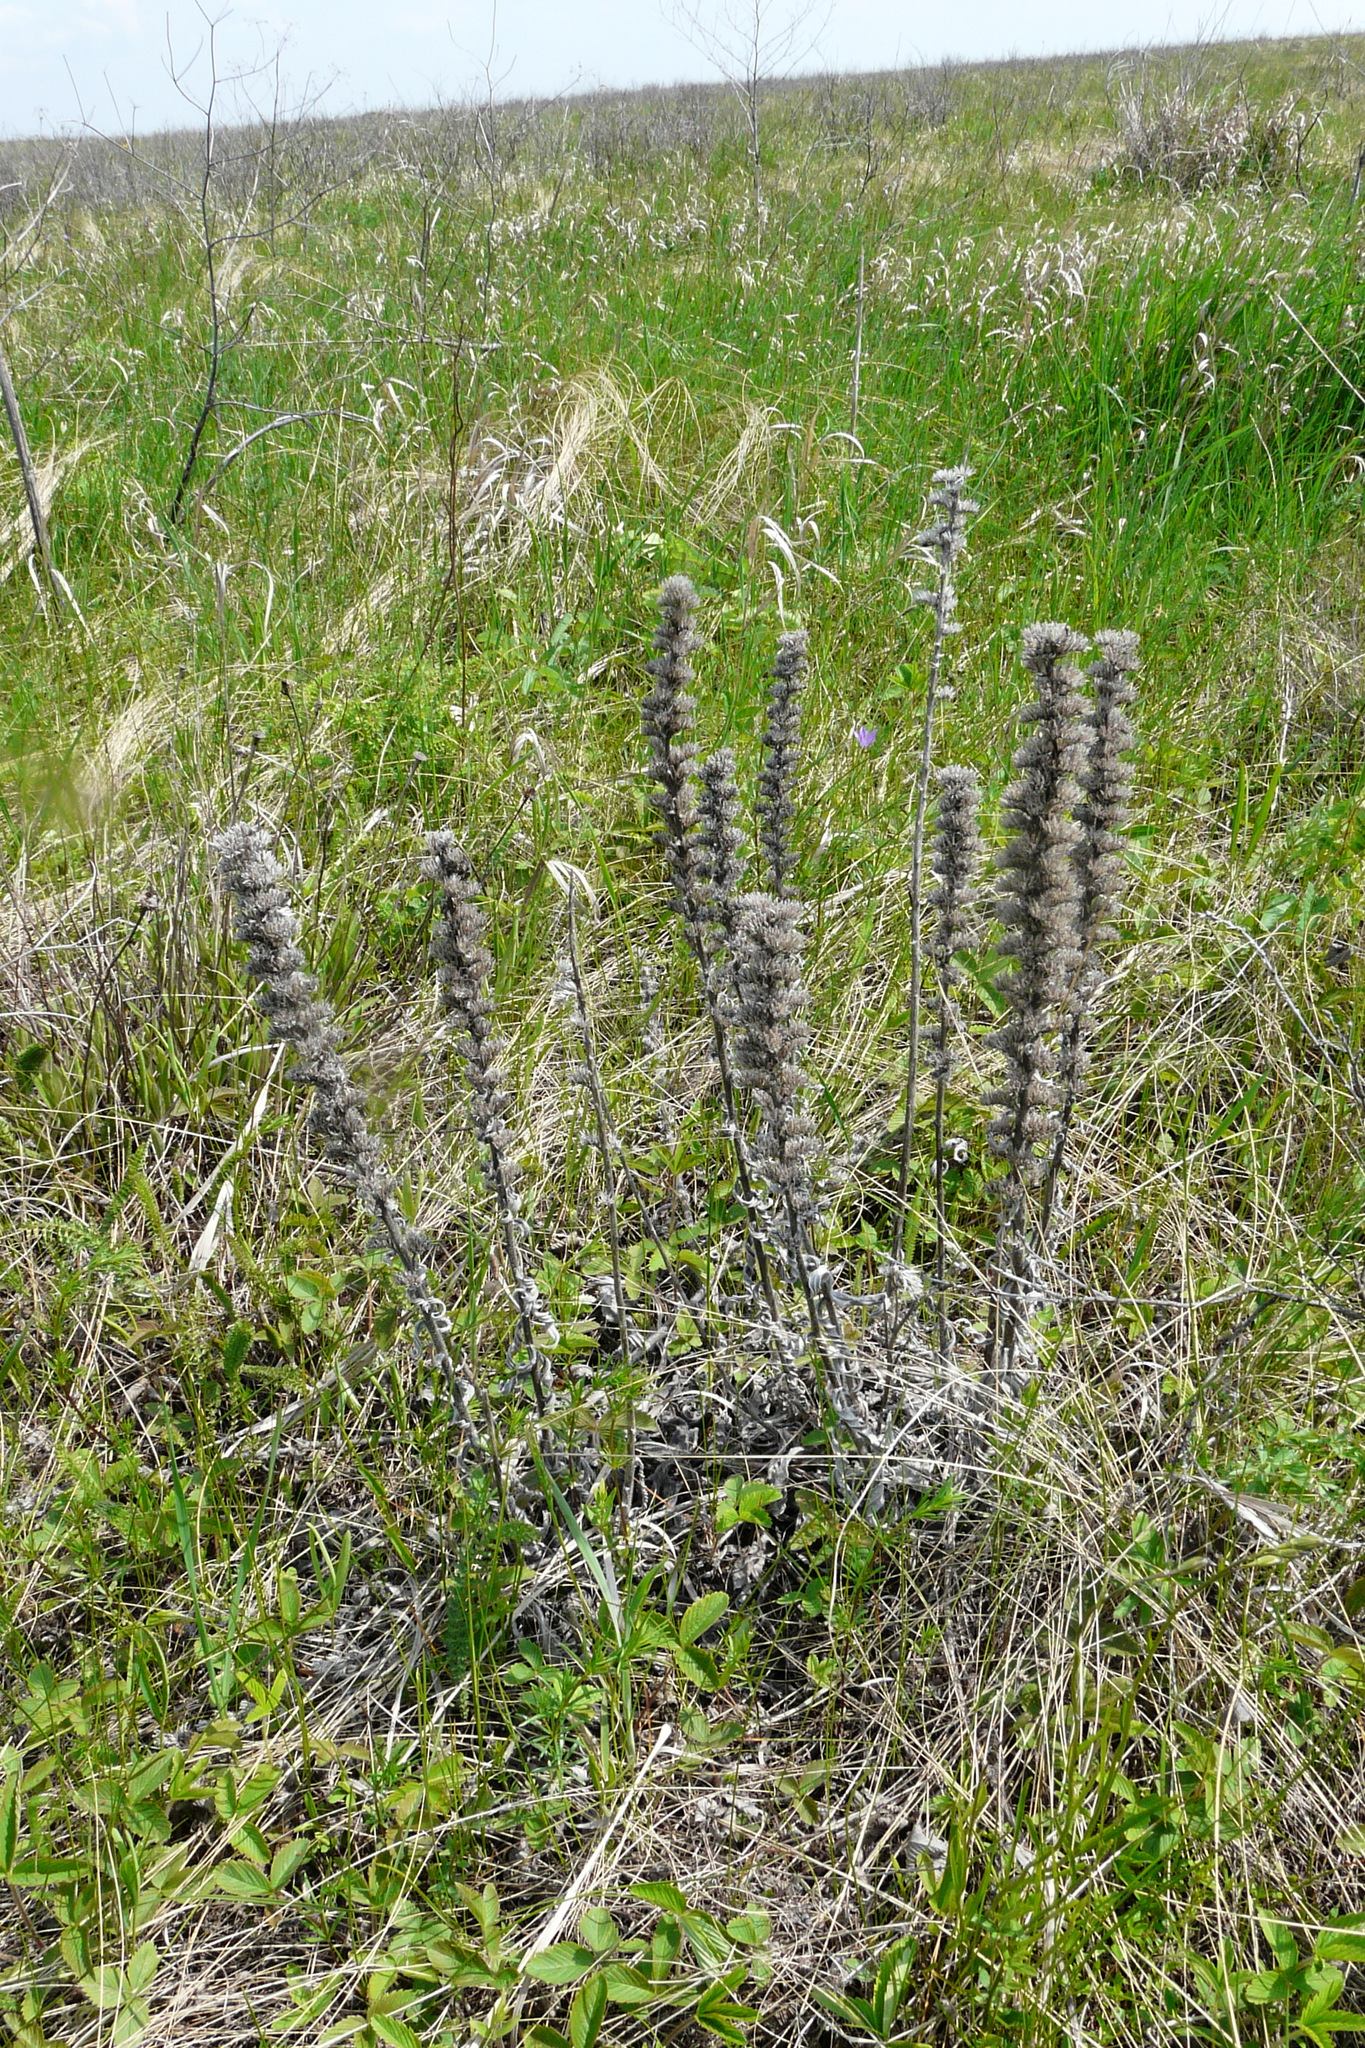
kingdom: Plantae
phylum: Tracheophyta
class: Magnoliopsida
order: Boraginales
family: Boraginaceae
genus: Pontechium
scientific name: Pontechium maculatum
